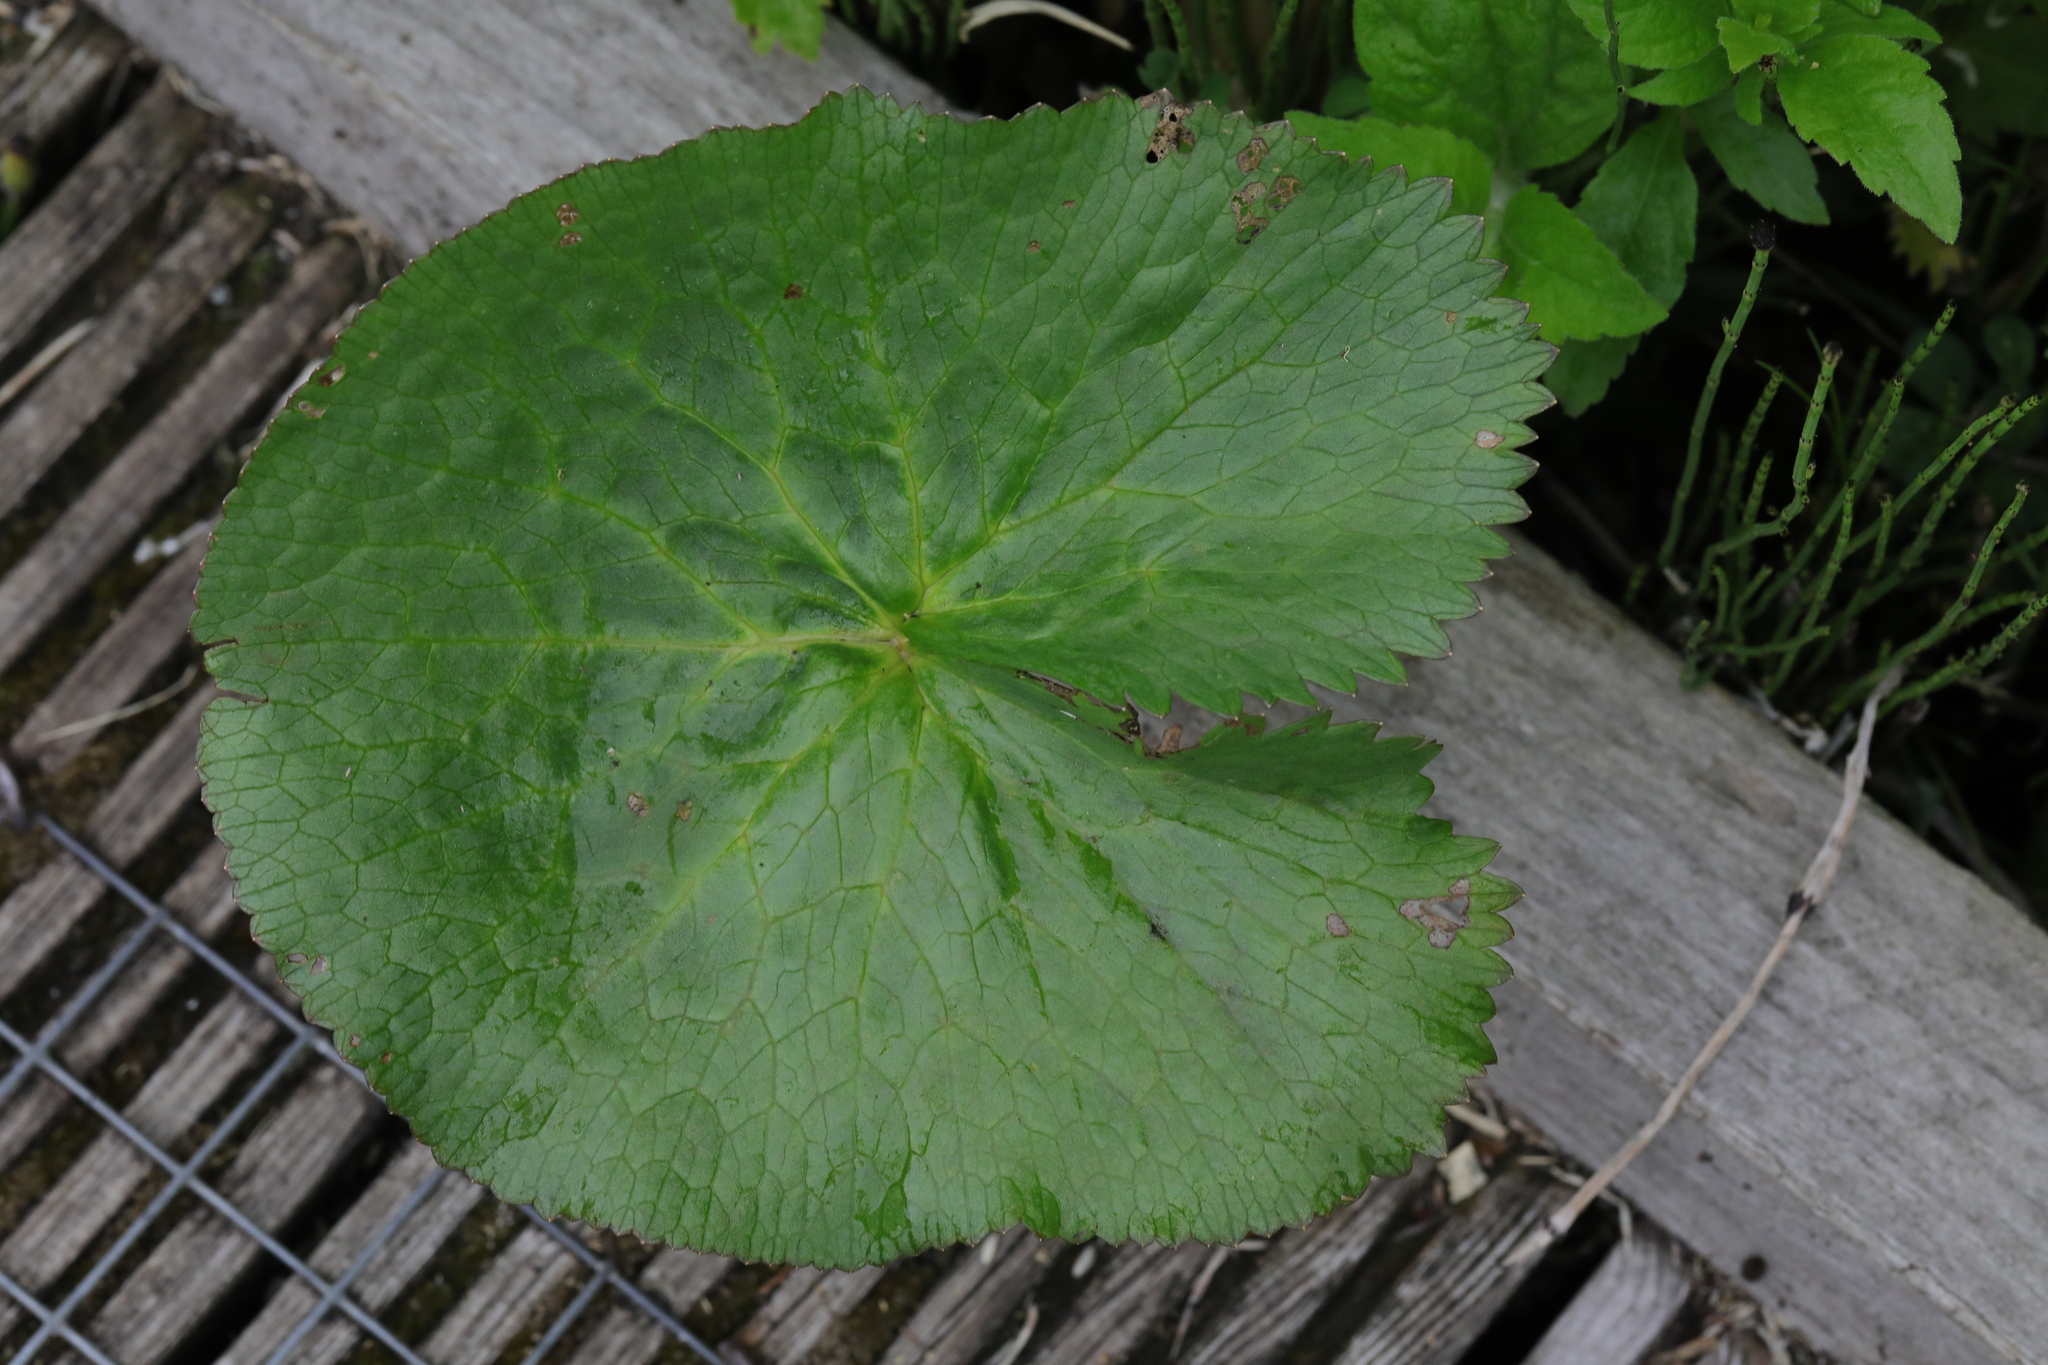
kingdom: Plantae
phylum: Tracheophyta
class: Magnoliopsida
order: Ranunculales
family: Ranunculaceae
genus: Caltha
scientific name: Caltha palustris
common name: Marsh marigold
